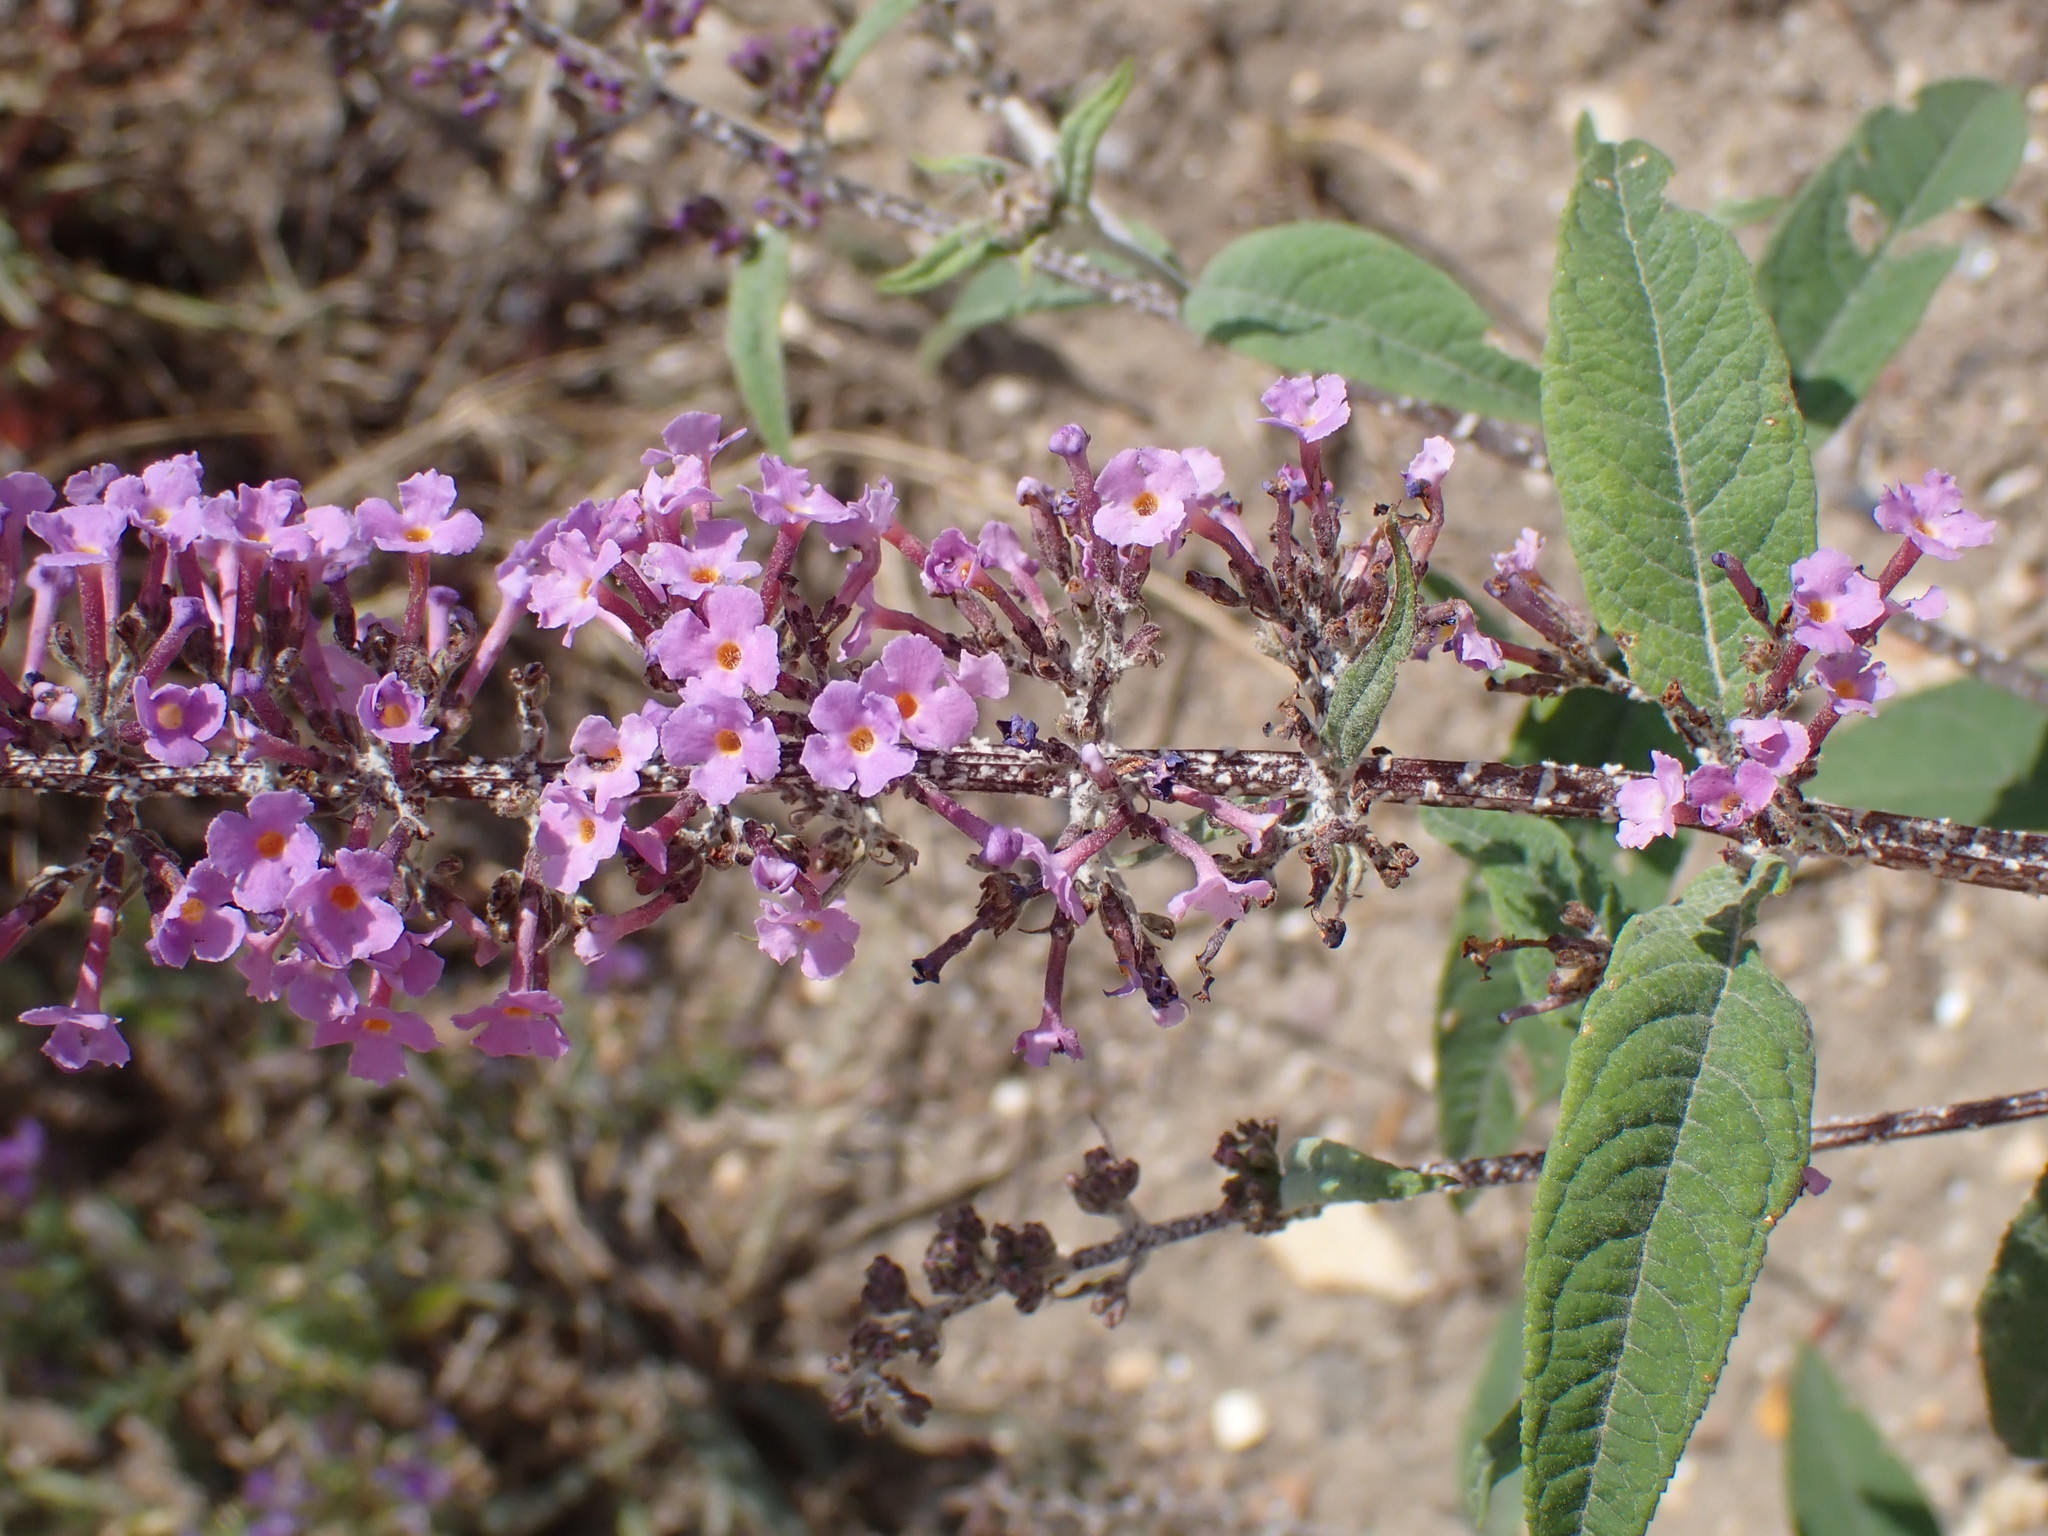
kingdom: Plantae
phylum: Tracheophyta
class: Magnoliopsida
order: Lamiales
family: Scrophulariaceae
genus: Buddleja
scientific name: Buddleja davidii
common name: Butterfly-bush
